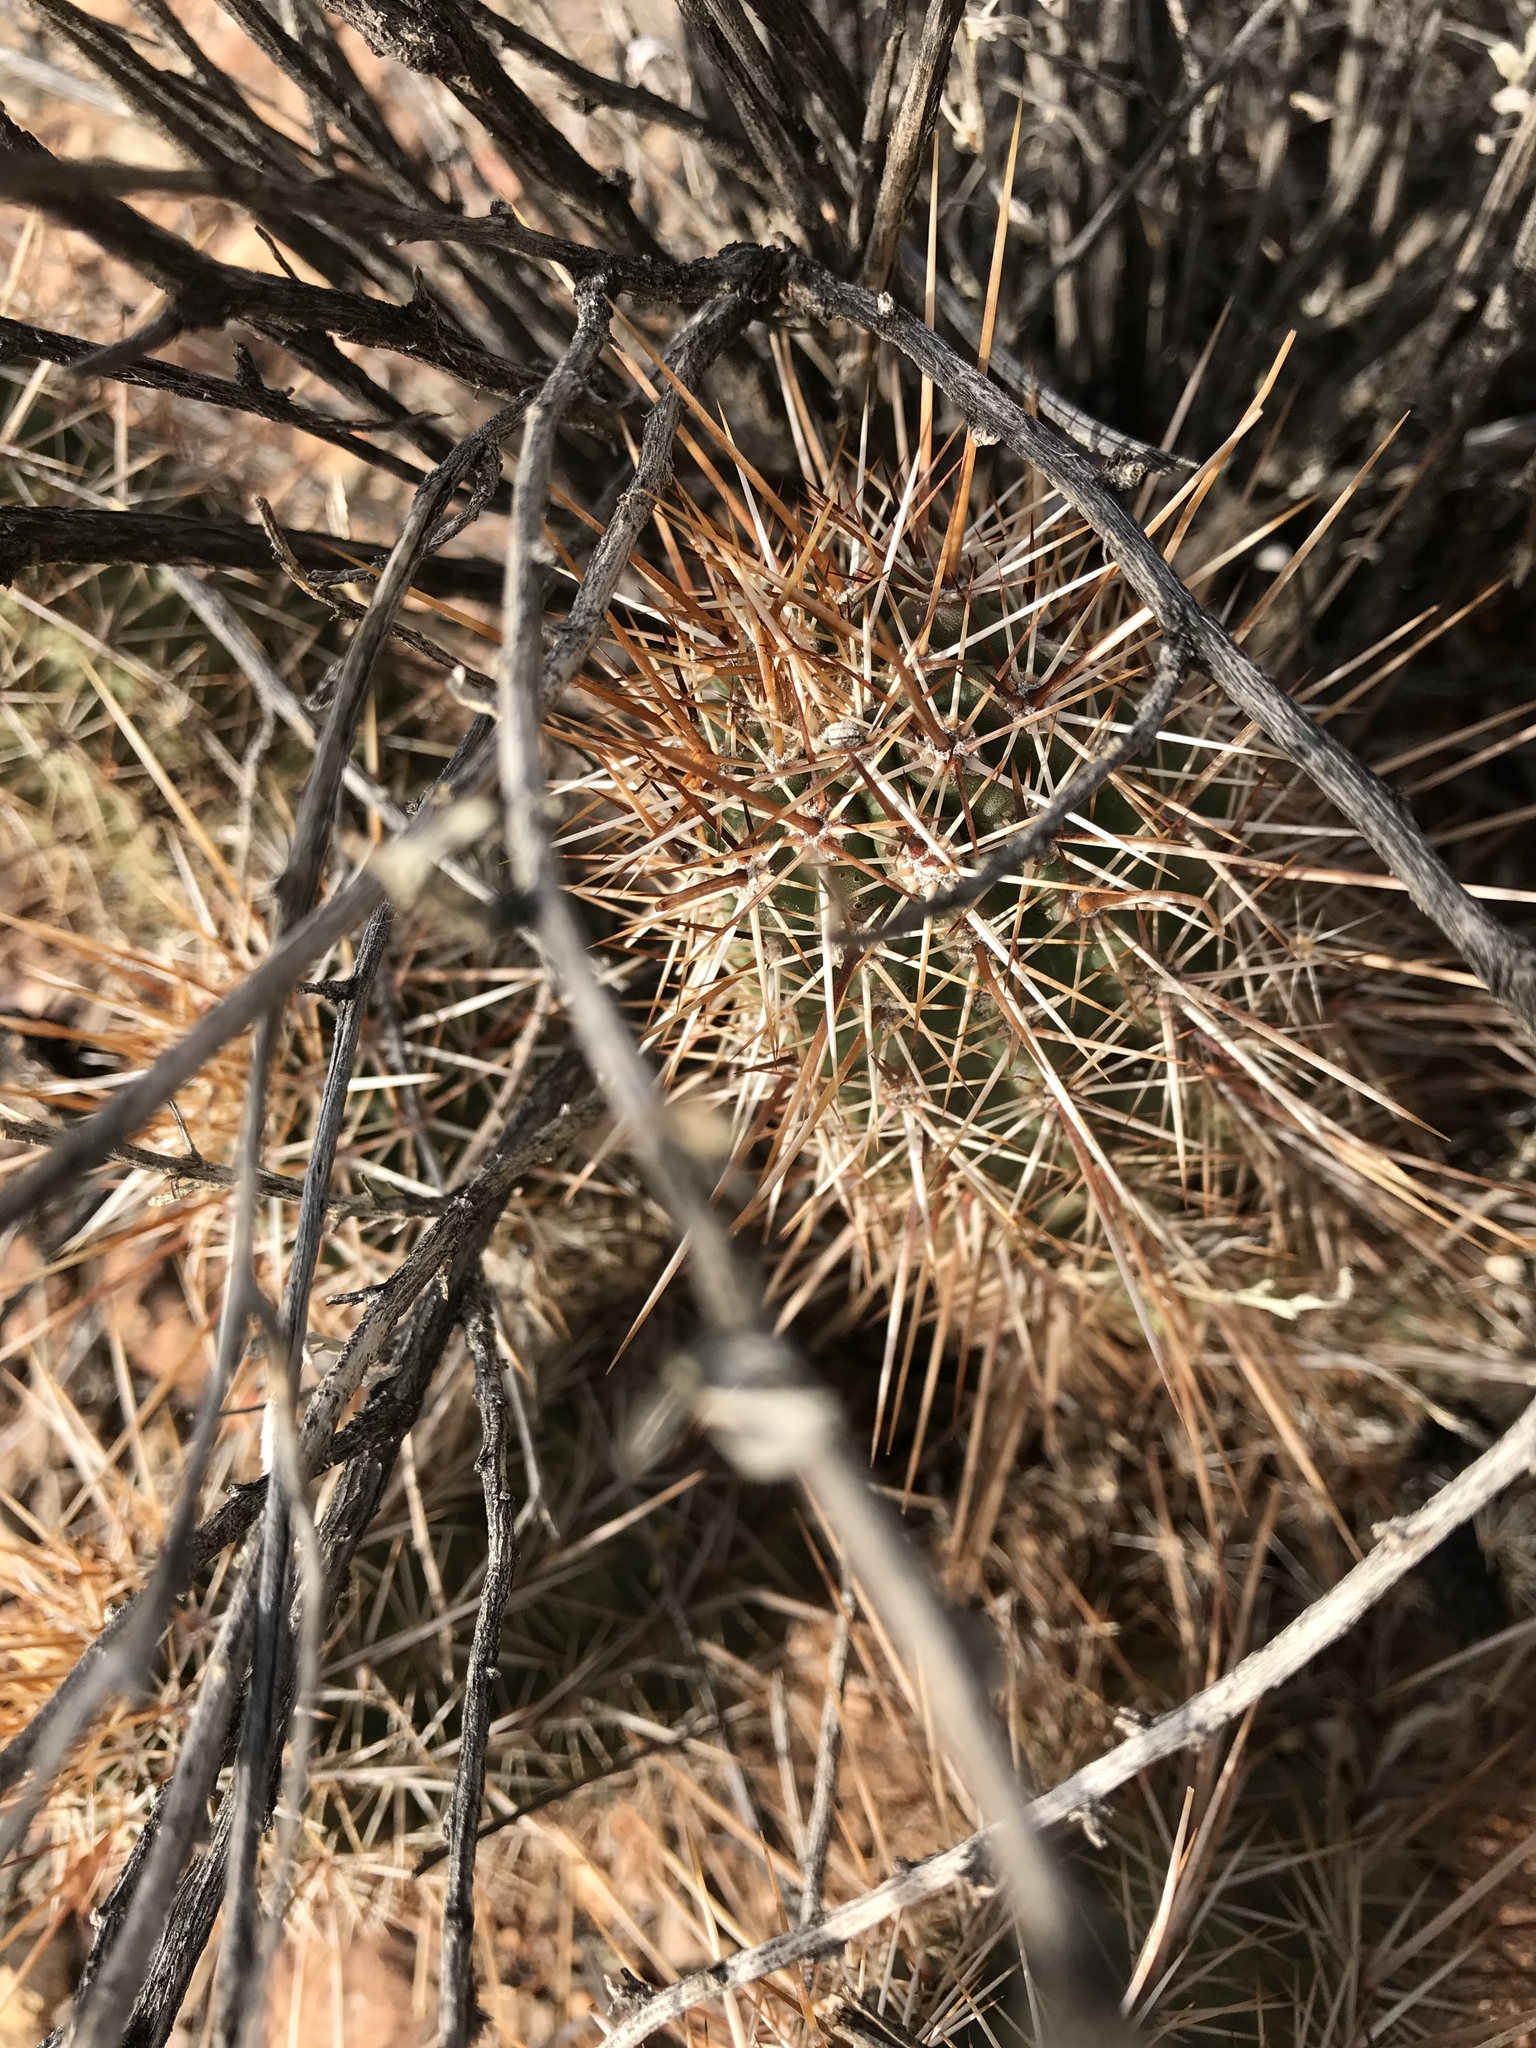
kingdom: Plantae
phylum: Tracheophyta
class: Magnoliopsida
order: Caryophyllales
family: Cactaceae
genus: Echinocereus
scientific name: Echinocereus engelmannii
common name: Engelmann's hedgehog cactus
